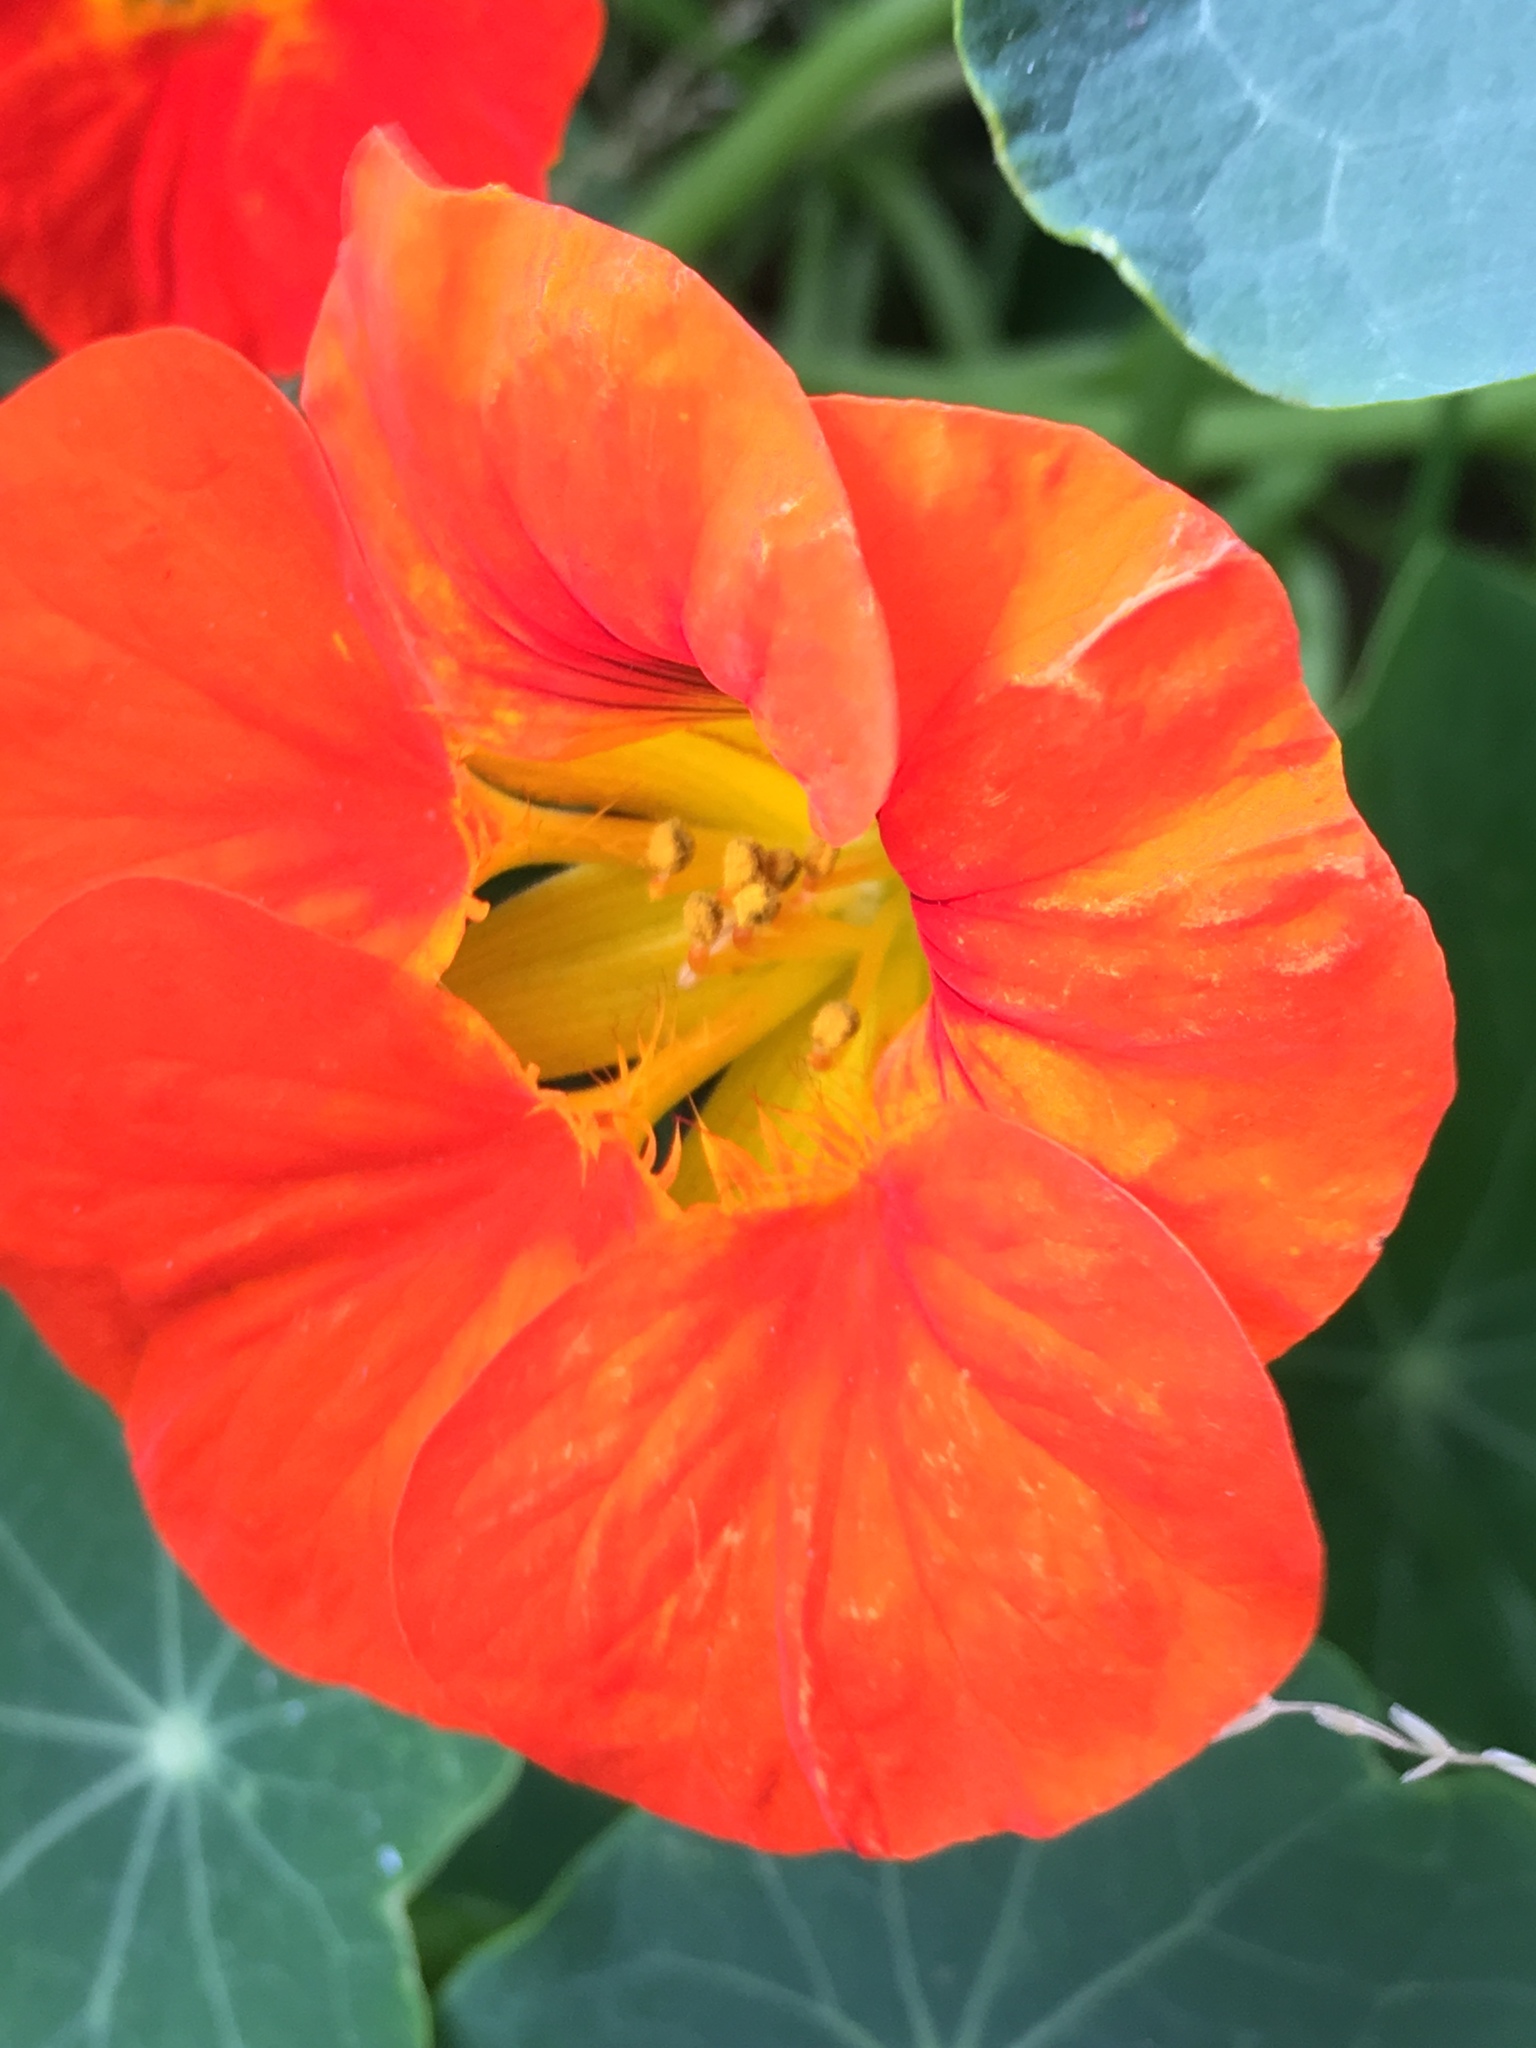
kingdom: Plantae
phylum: Tracheophyta
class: Magnoliopsida
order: Brassicales
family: Tropaeolaceae
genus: Tropaeolum
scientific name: Tropaeolum majus
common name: Nasturtium
